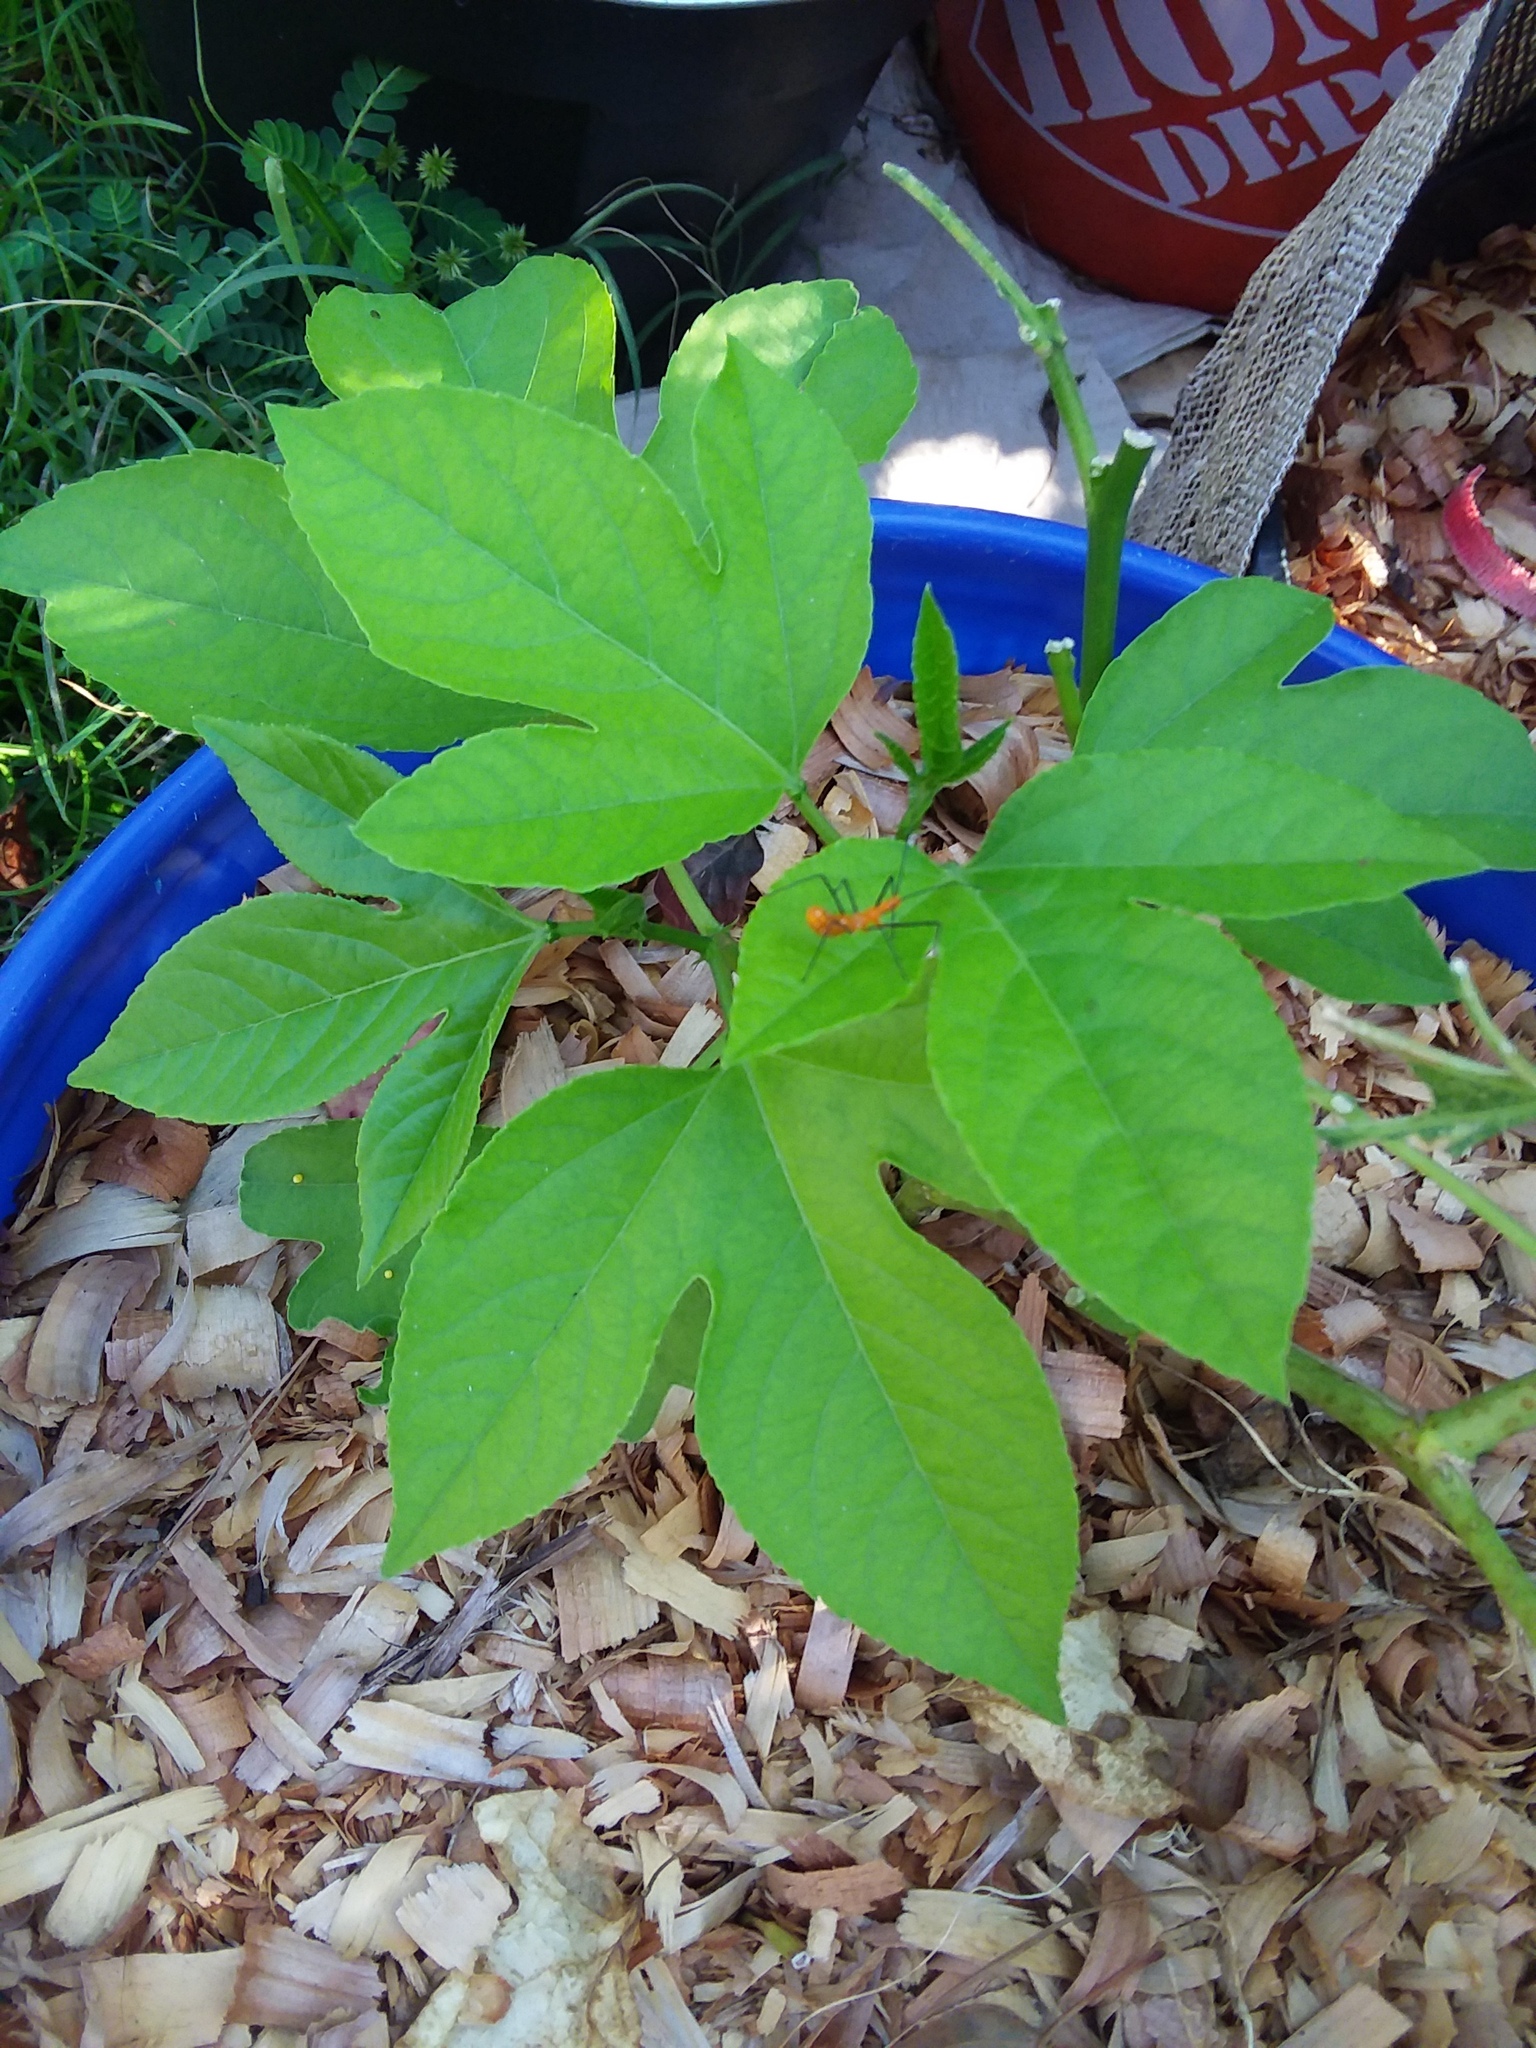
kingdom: Animalia
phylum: Arthropoda
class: Insecta
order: Hemiptera
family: Reduviidae
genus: Zelus
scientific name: Zelus longipes
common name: Milkweed assassin bug
